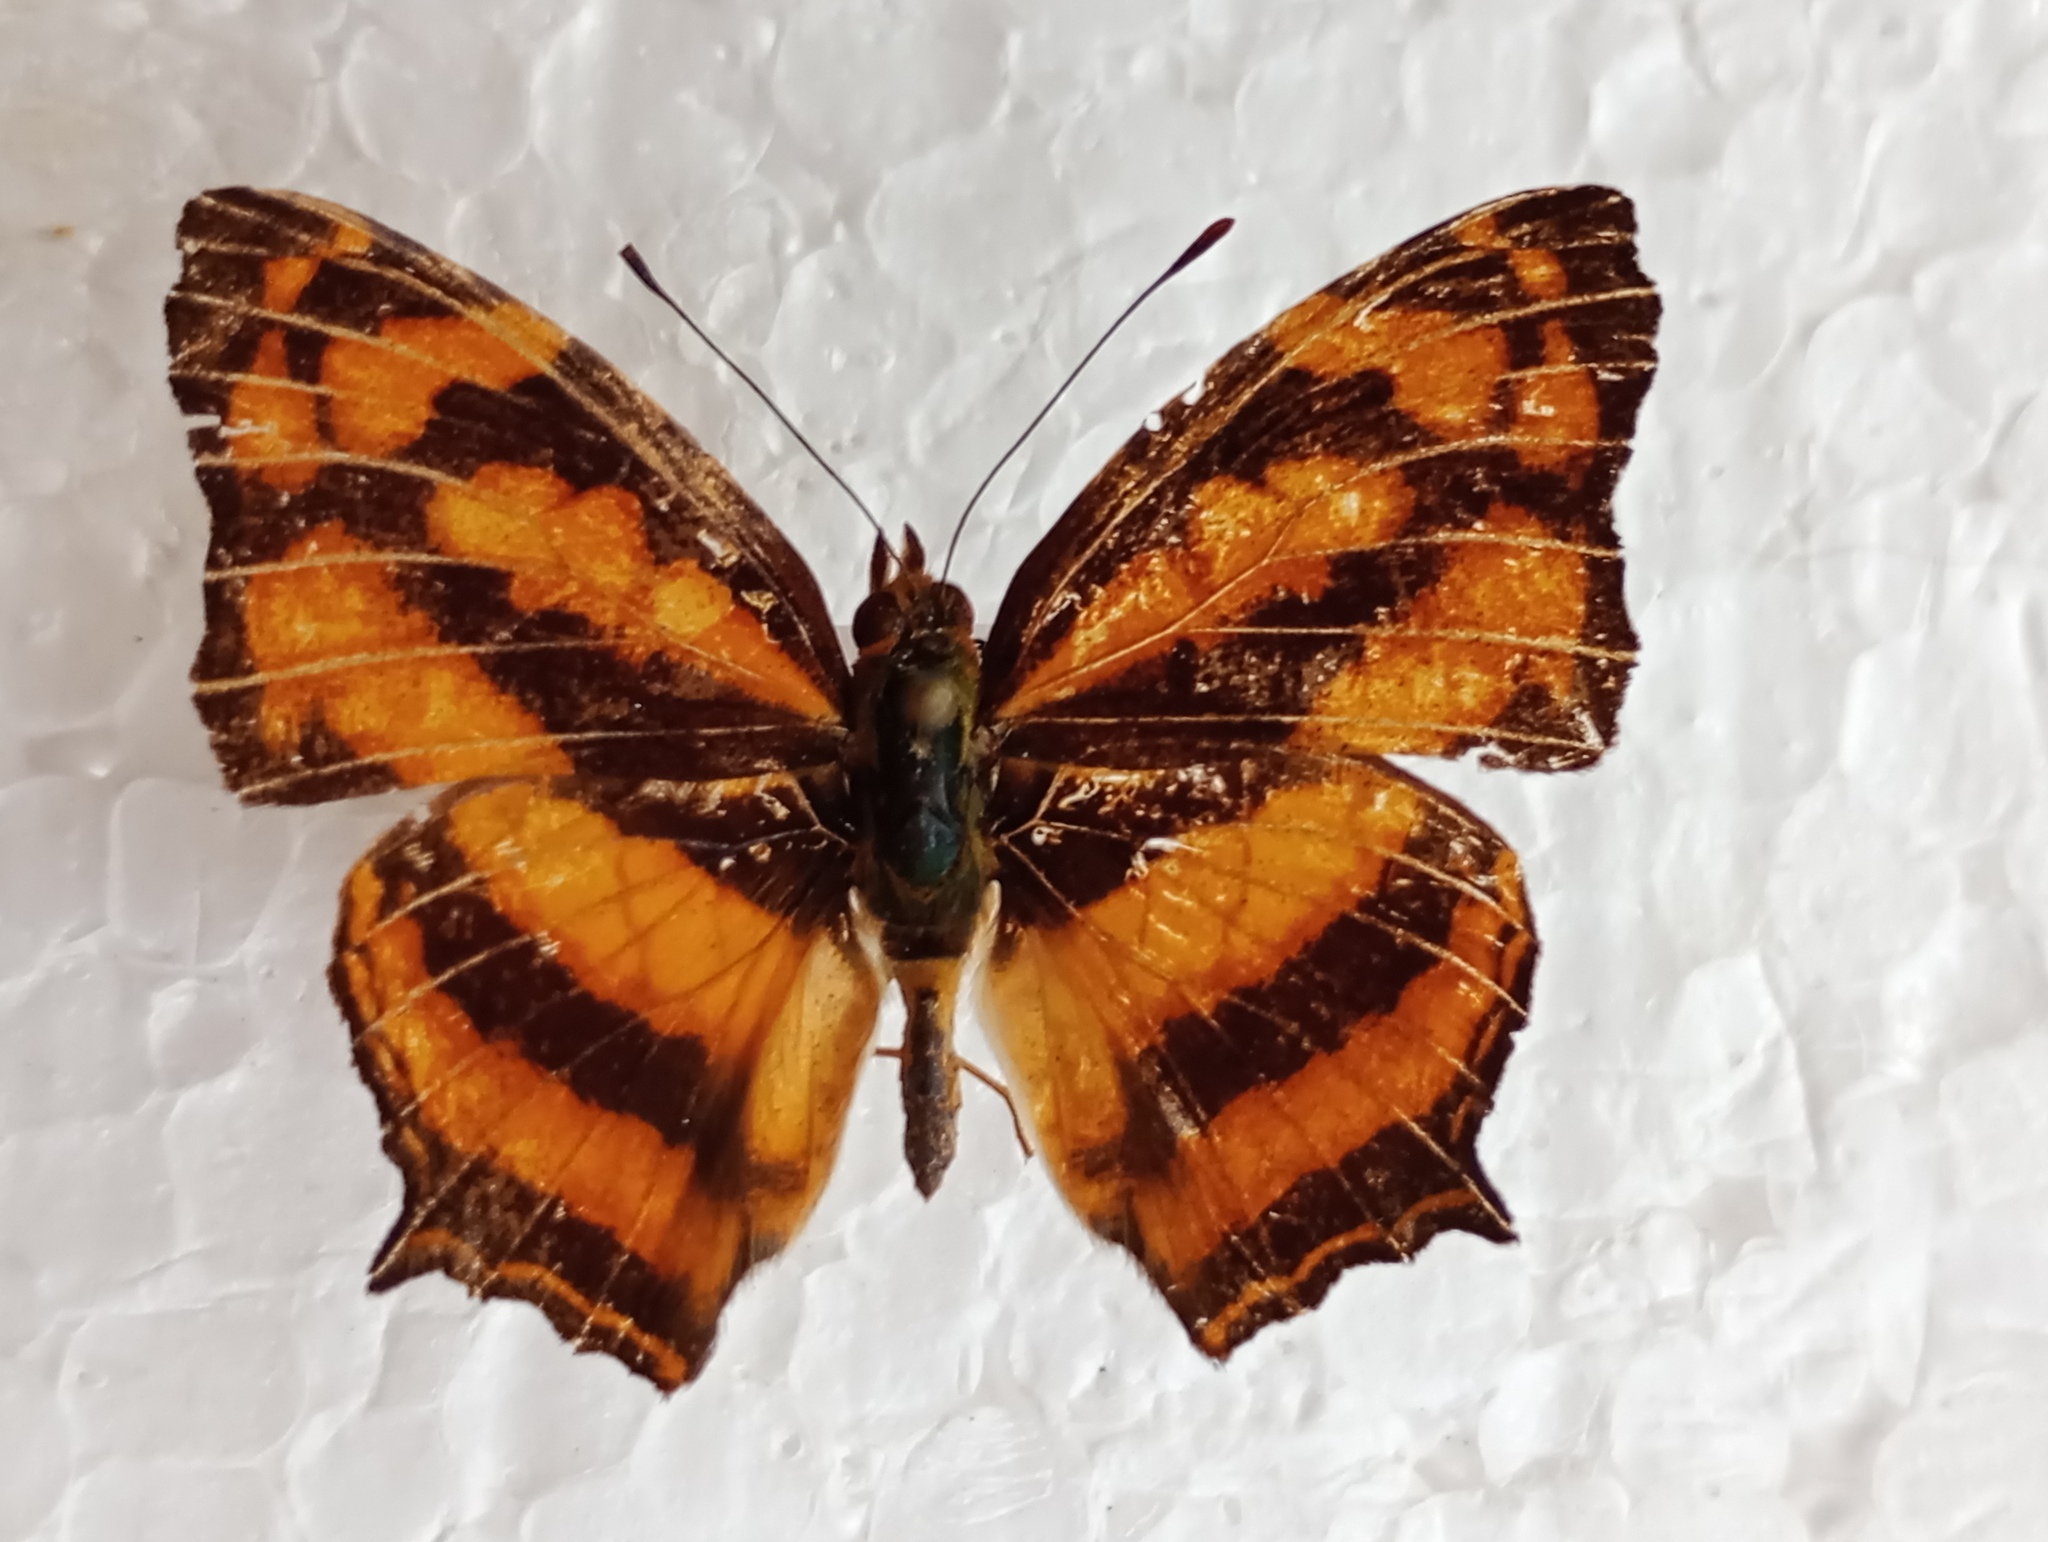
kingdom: Animalia
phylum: Arthropoda
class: Insecta
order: Lepidoptera
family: Nymphalidae
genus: Symbrenthia
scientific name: Symbrenthia hypselis
